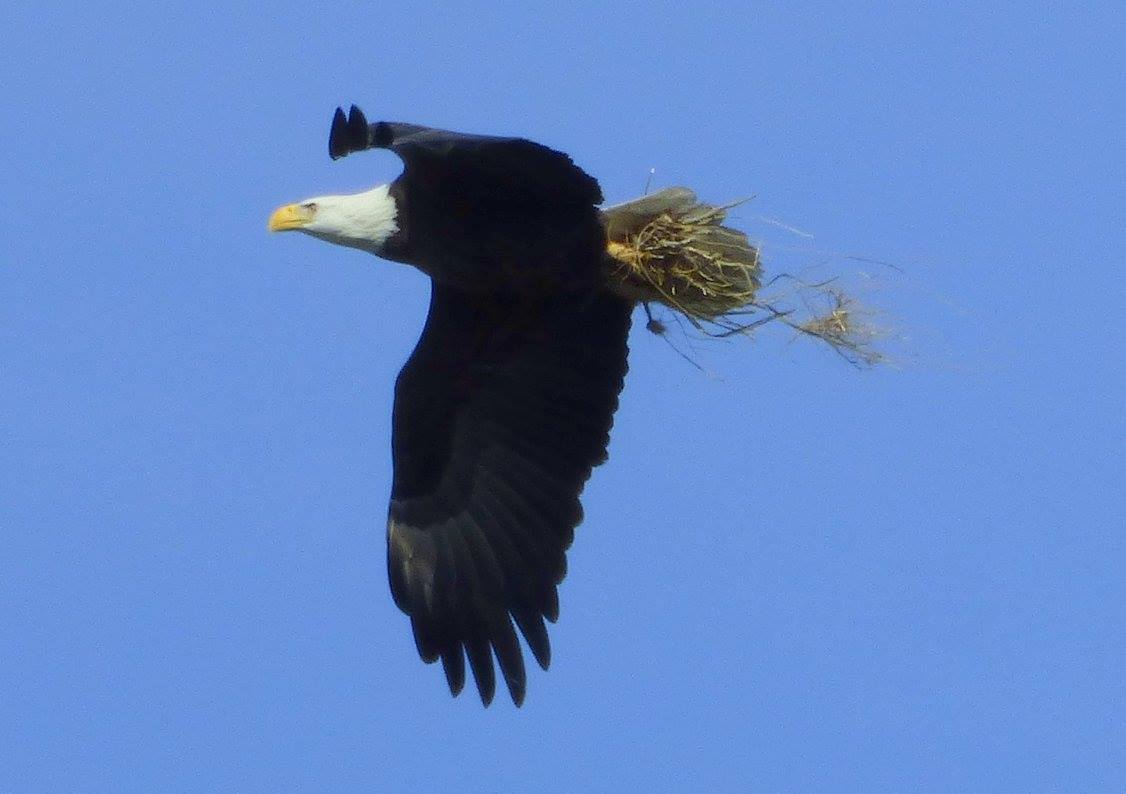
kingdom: Animalia
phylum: Chordata
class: Aves
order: Accipitriformes
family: Accipitridae
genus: Haliaeetus
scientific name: Haliaeetus leucocephalus
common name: Bald eagle
